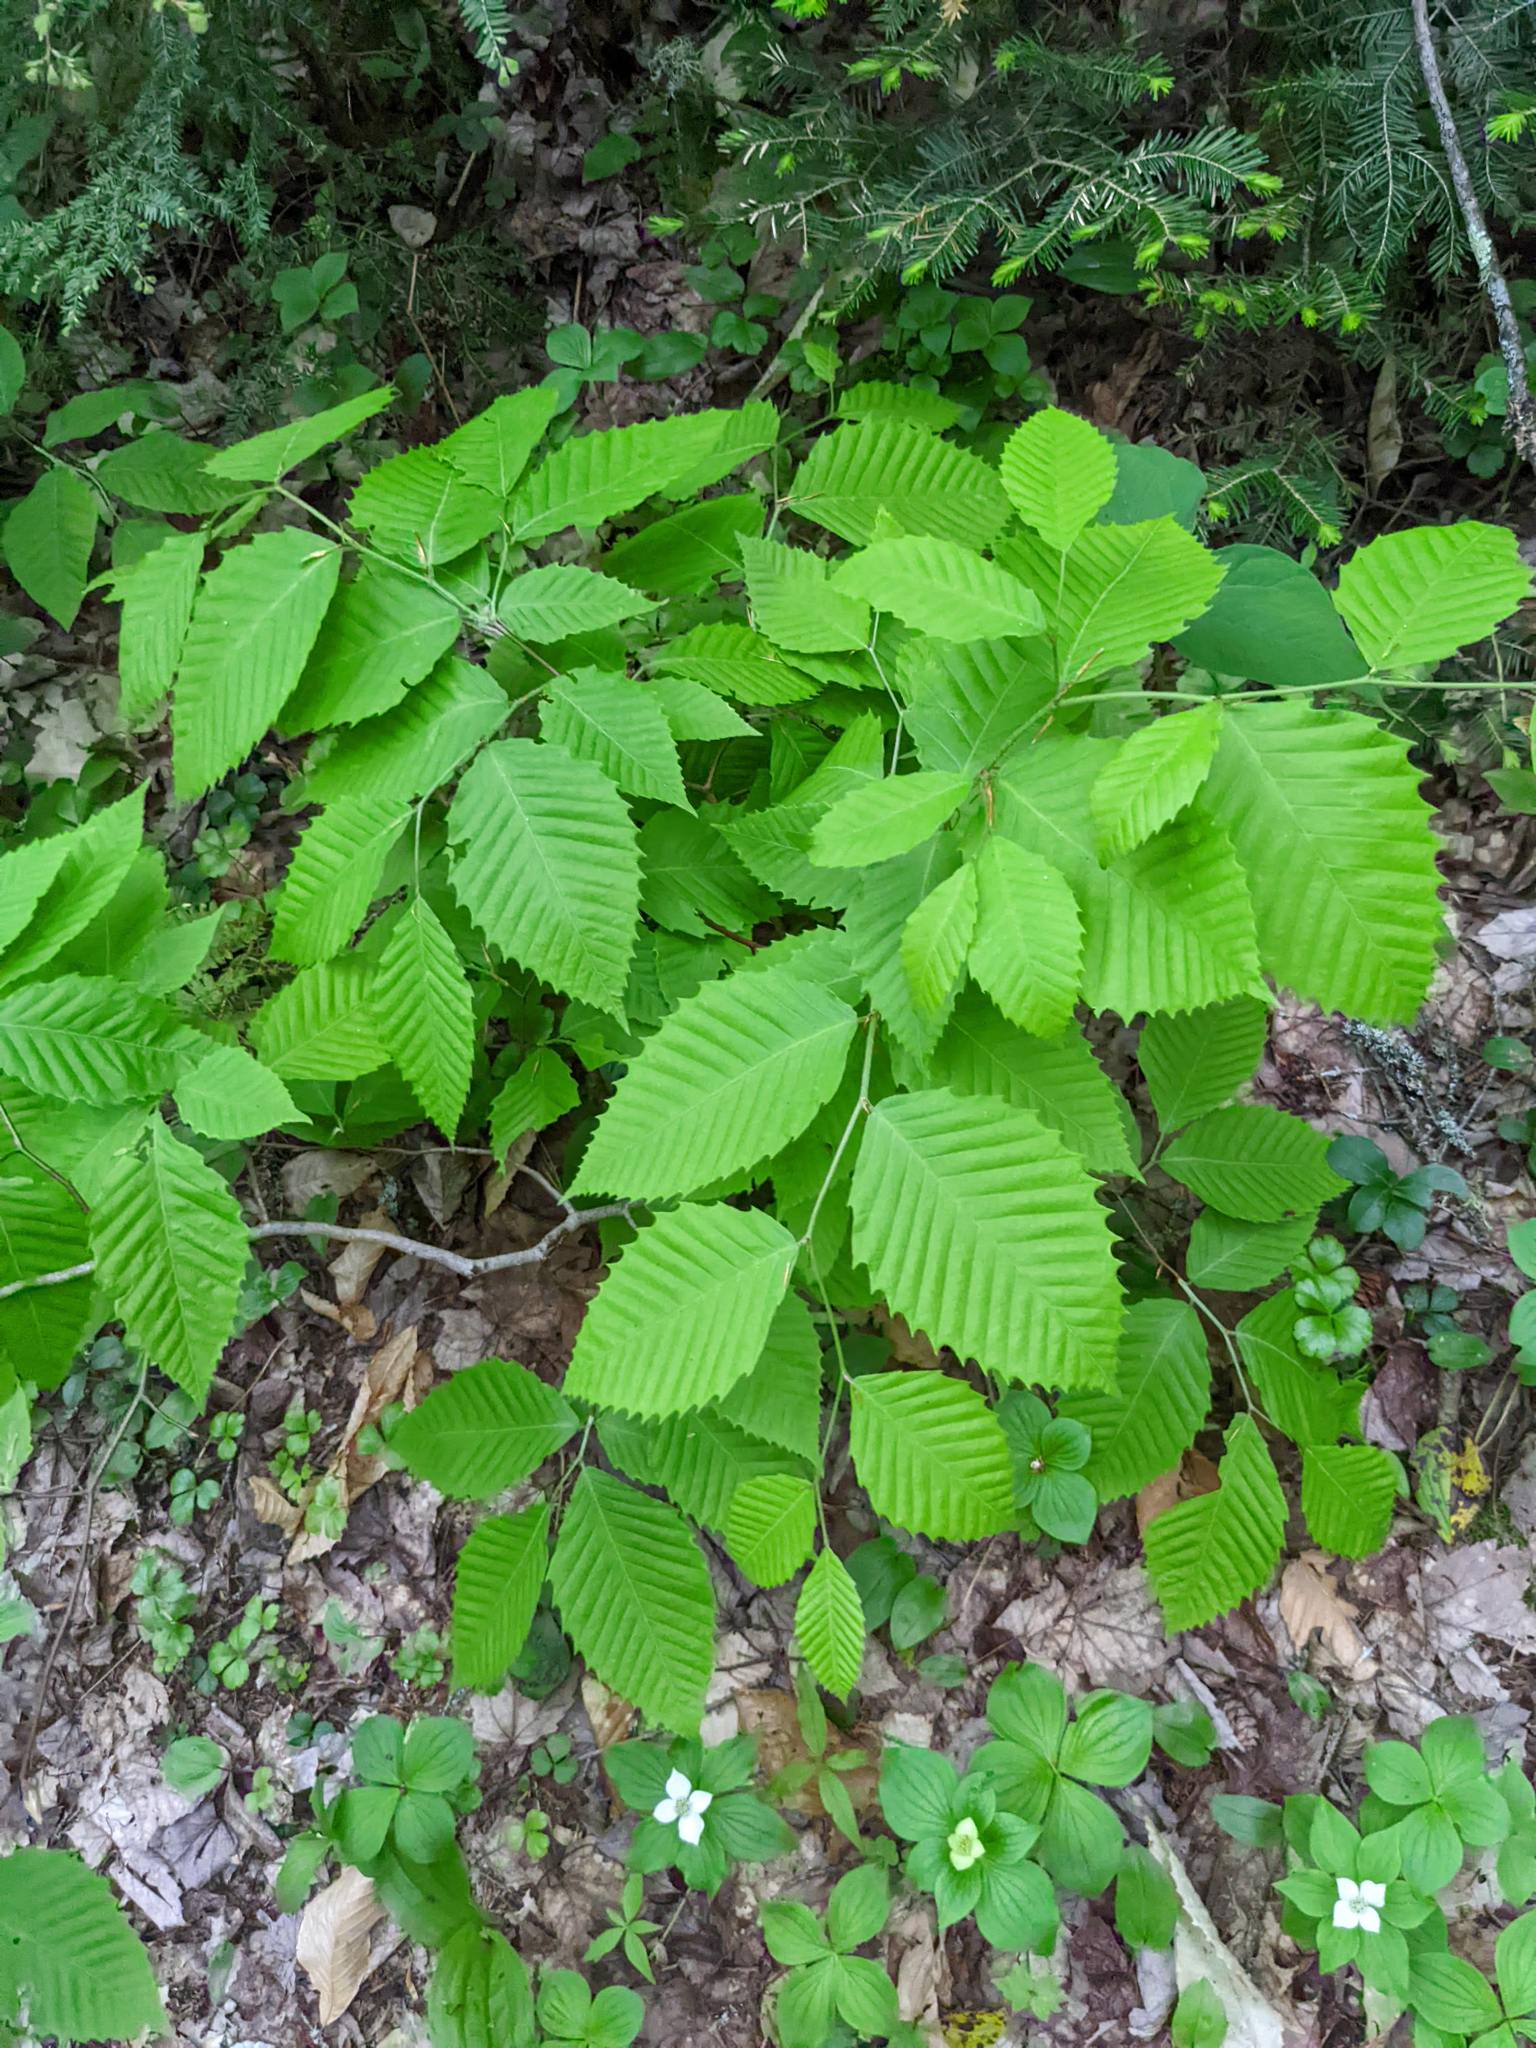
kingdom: Plantae
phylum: Tracheophyta
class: Magnoliopsida
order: Fagales
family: Fagaceae
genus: Fagus
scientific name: Fagus grandifolia
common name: American beech
